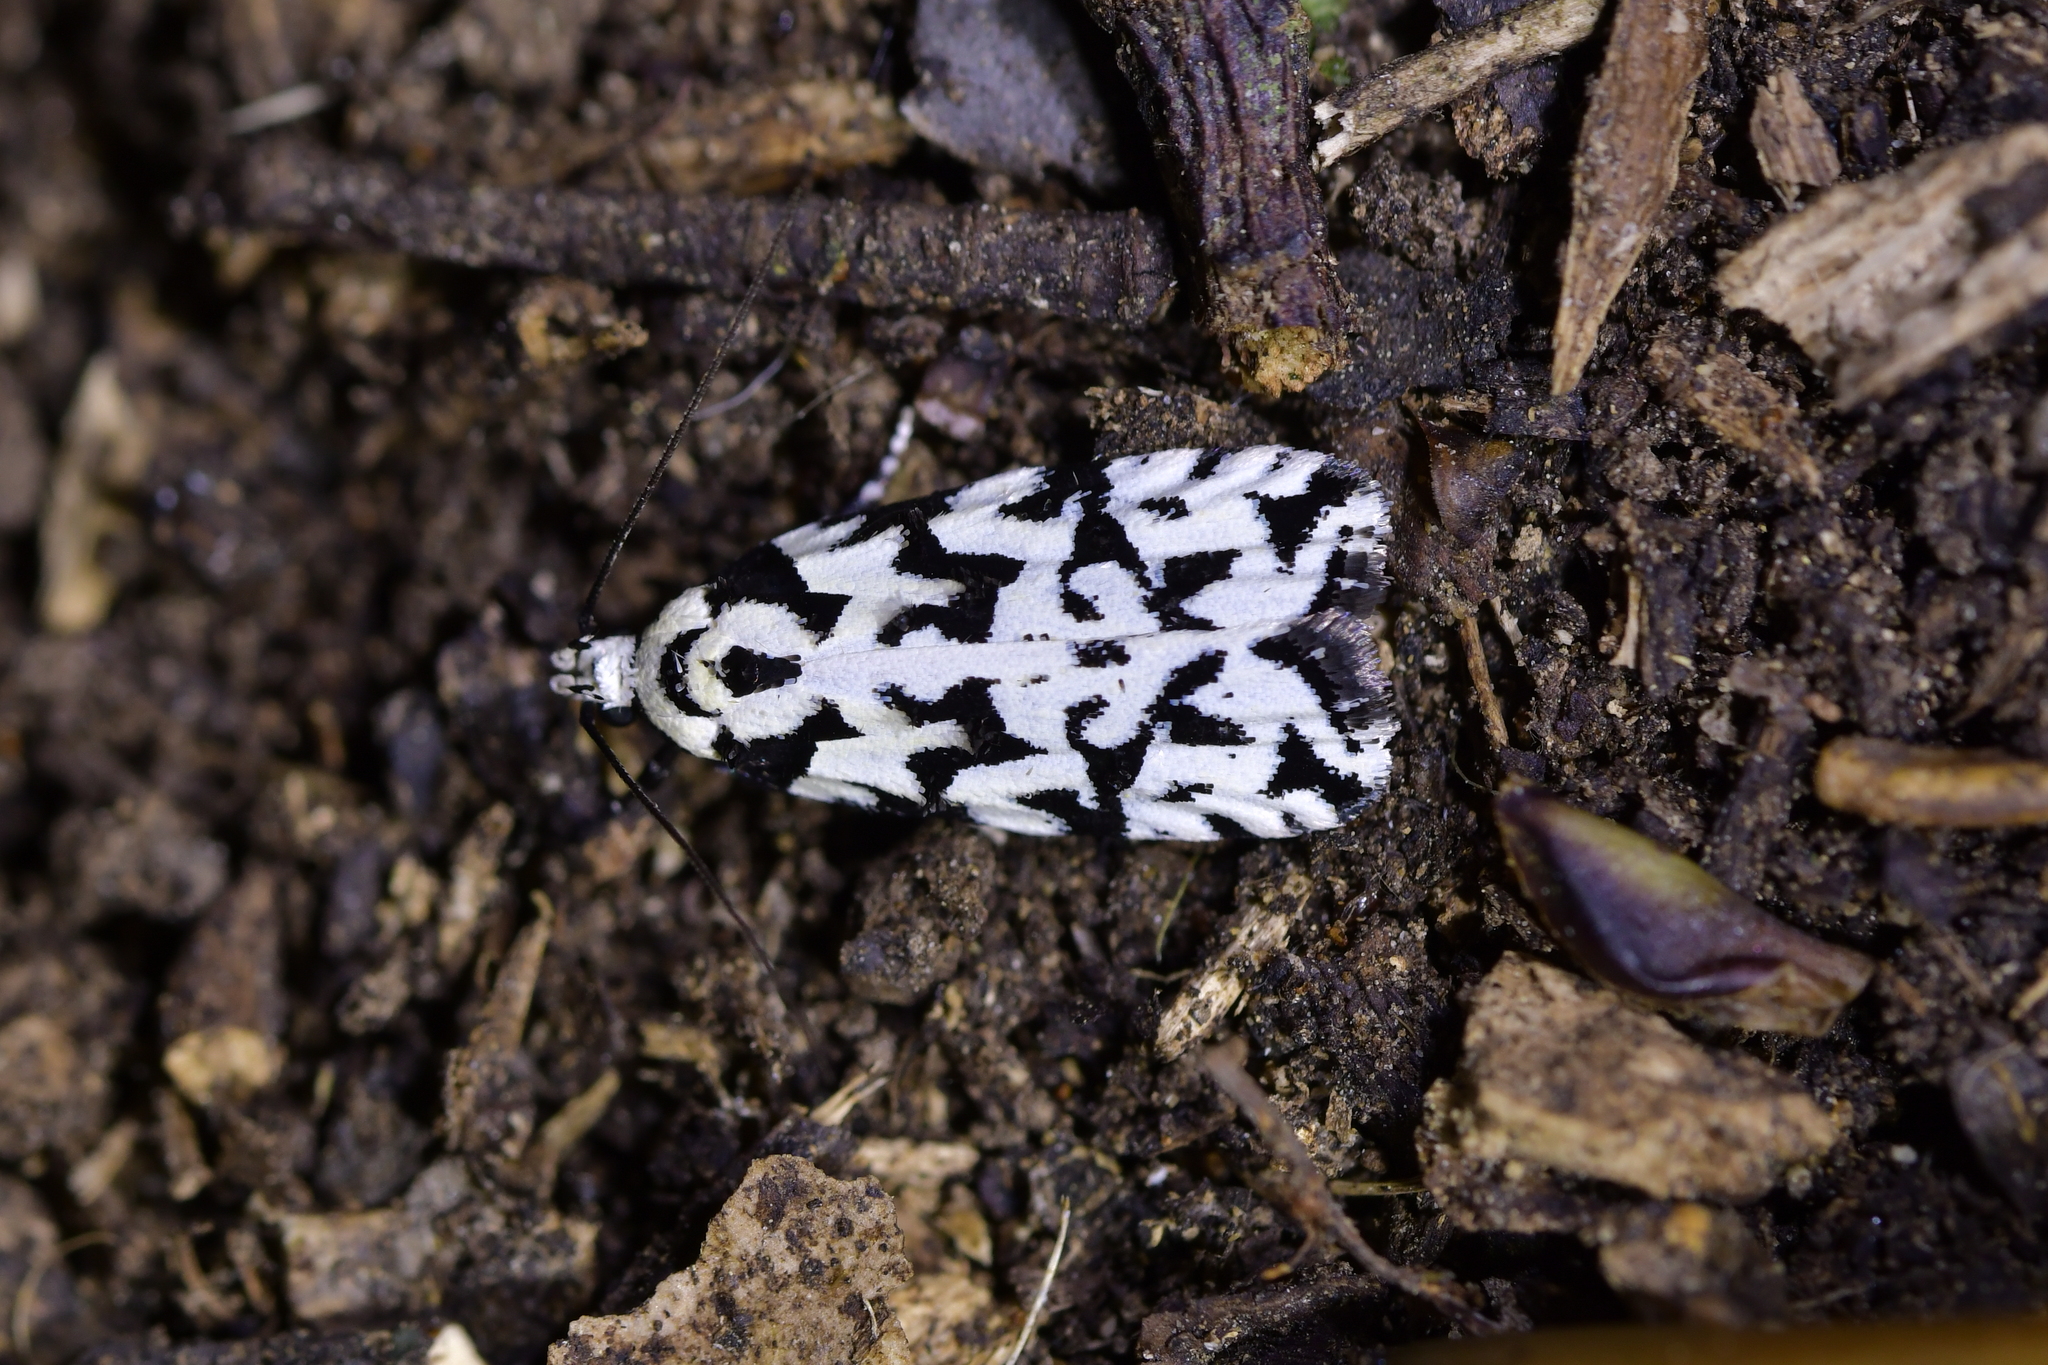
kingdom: Animalia
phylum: Arthropoda
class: Insecta
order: Lepidoptera
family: Oecophoridae
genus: Izatha
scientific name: Izatha
